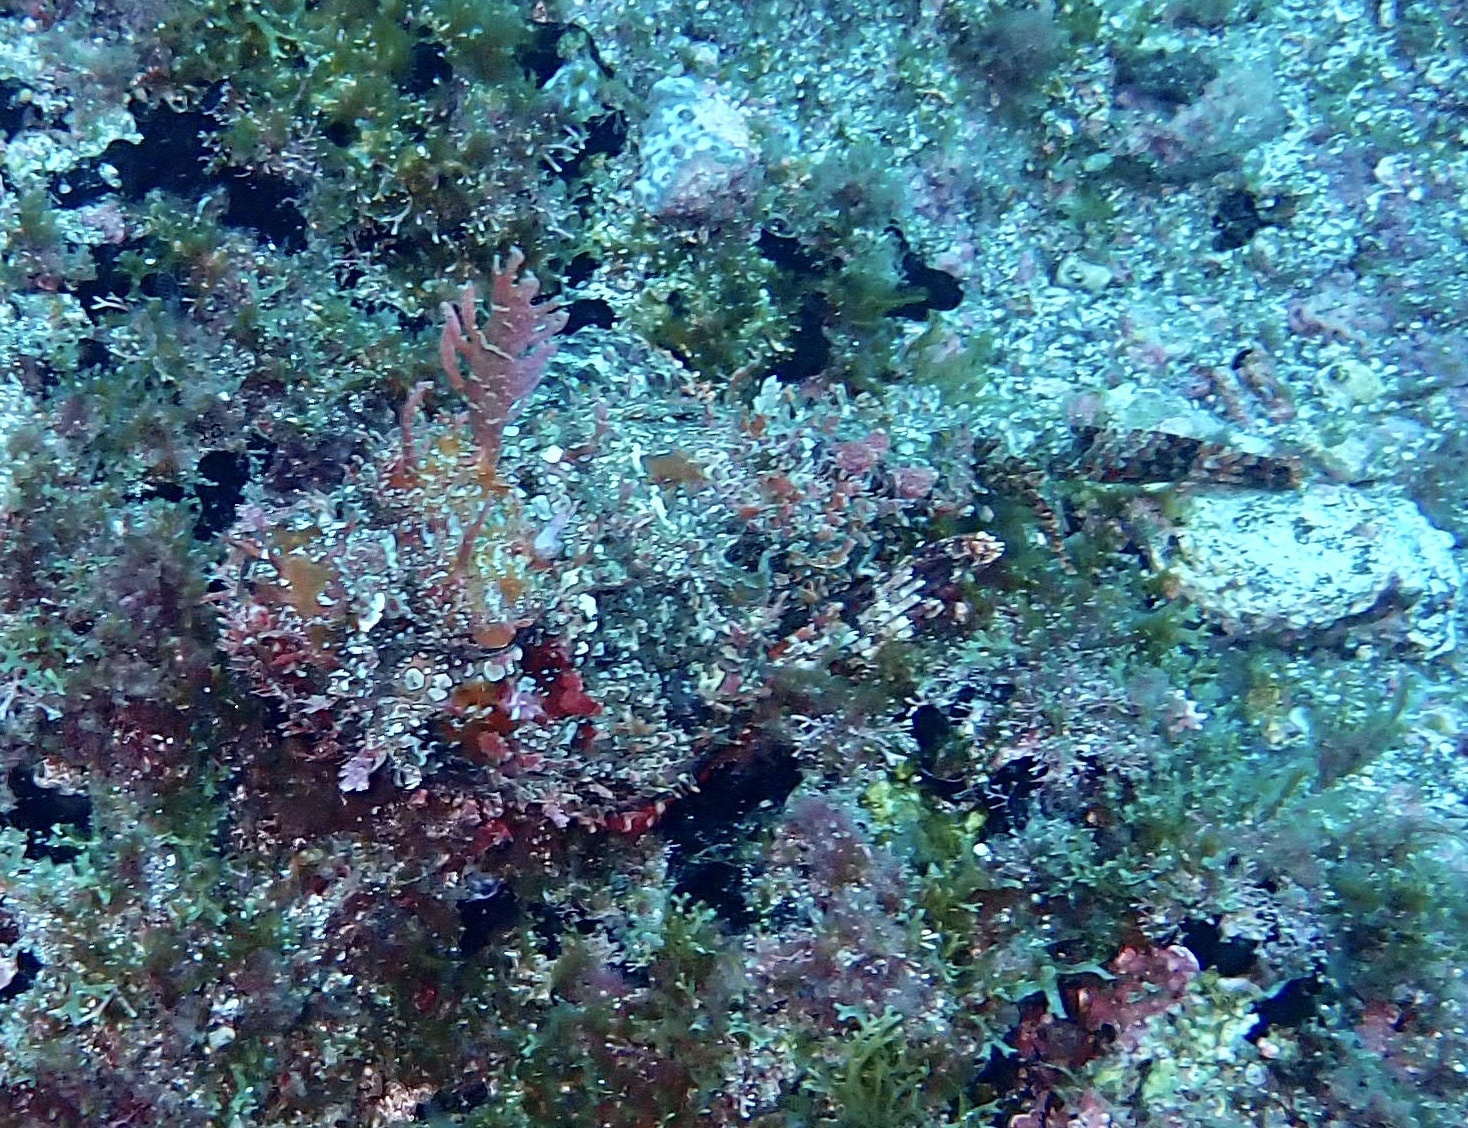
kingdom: Animalia
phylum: Chordata
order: Scorpaeniformes
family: Scorpaenidae
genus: Scorpaena
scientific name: Scorpaena laevis
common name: Senegalese rockfish
